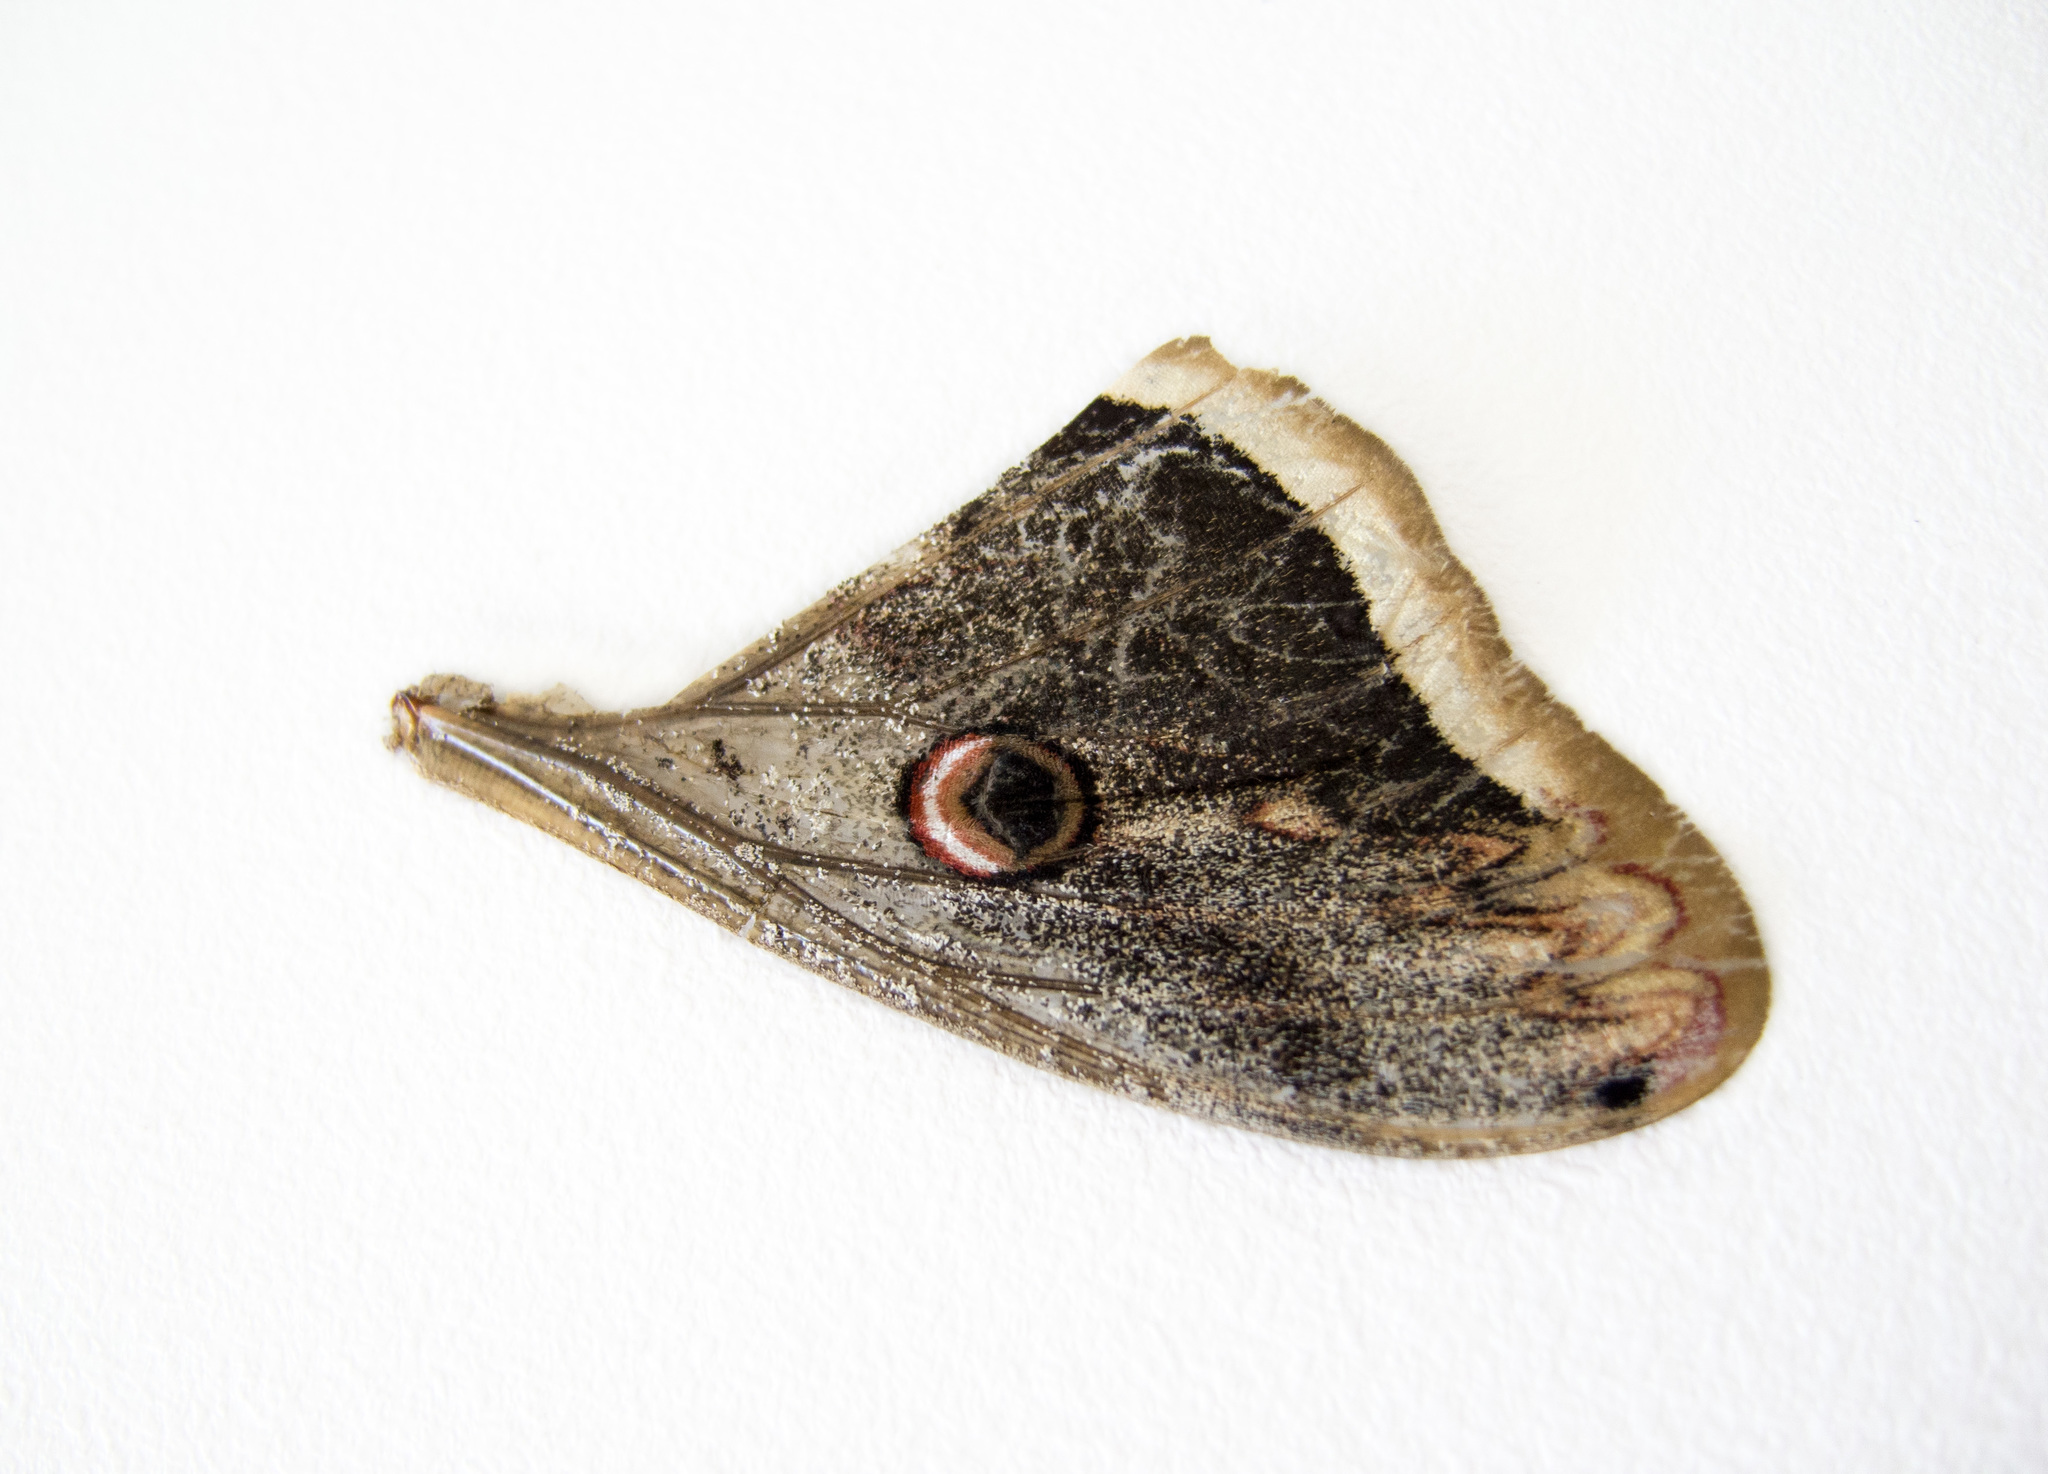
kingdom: Animalia
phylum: Arthropoda
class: Insecta
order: Lepidoptera
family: Saturniidae
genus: Saturnia
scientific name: Saturnia pyri
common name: Great peacock moth
